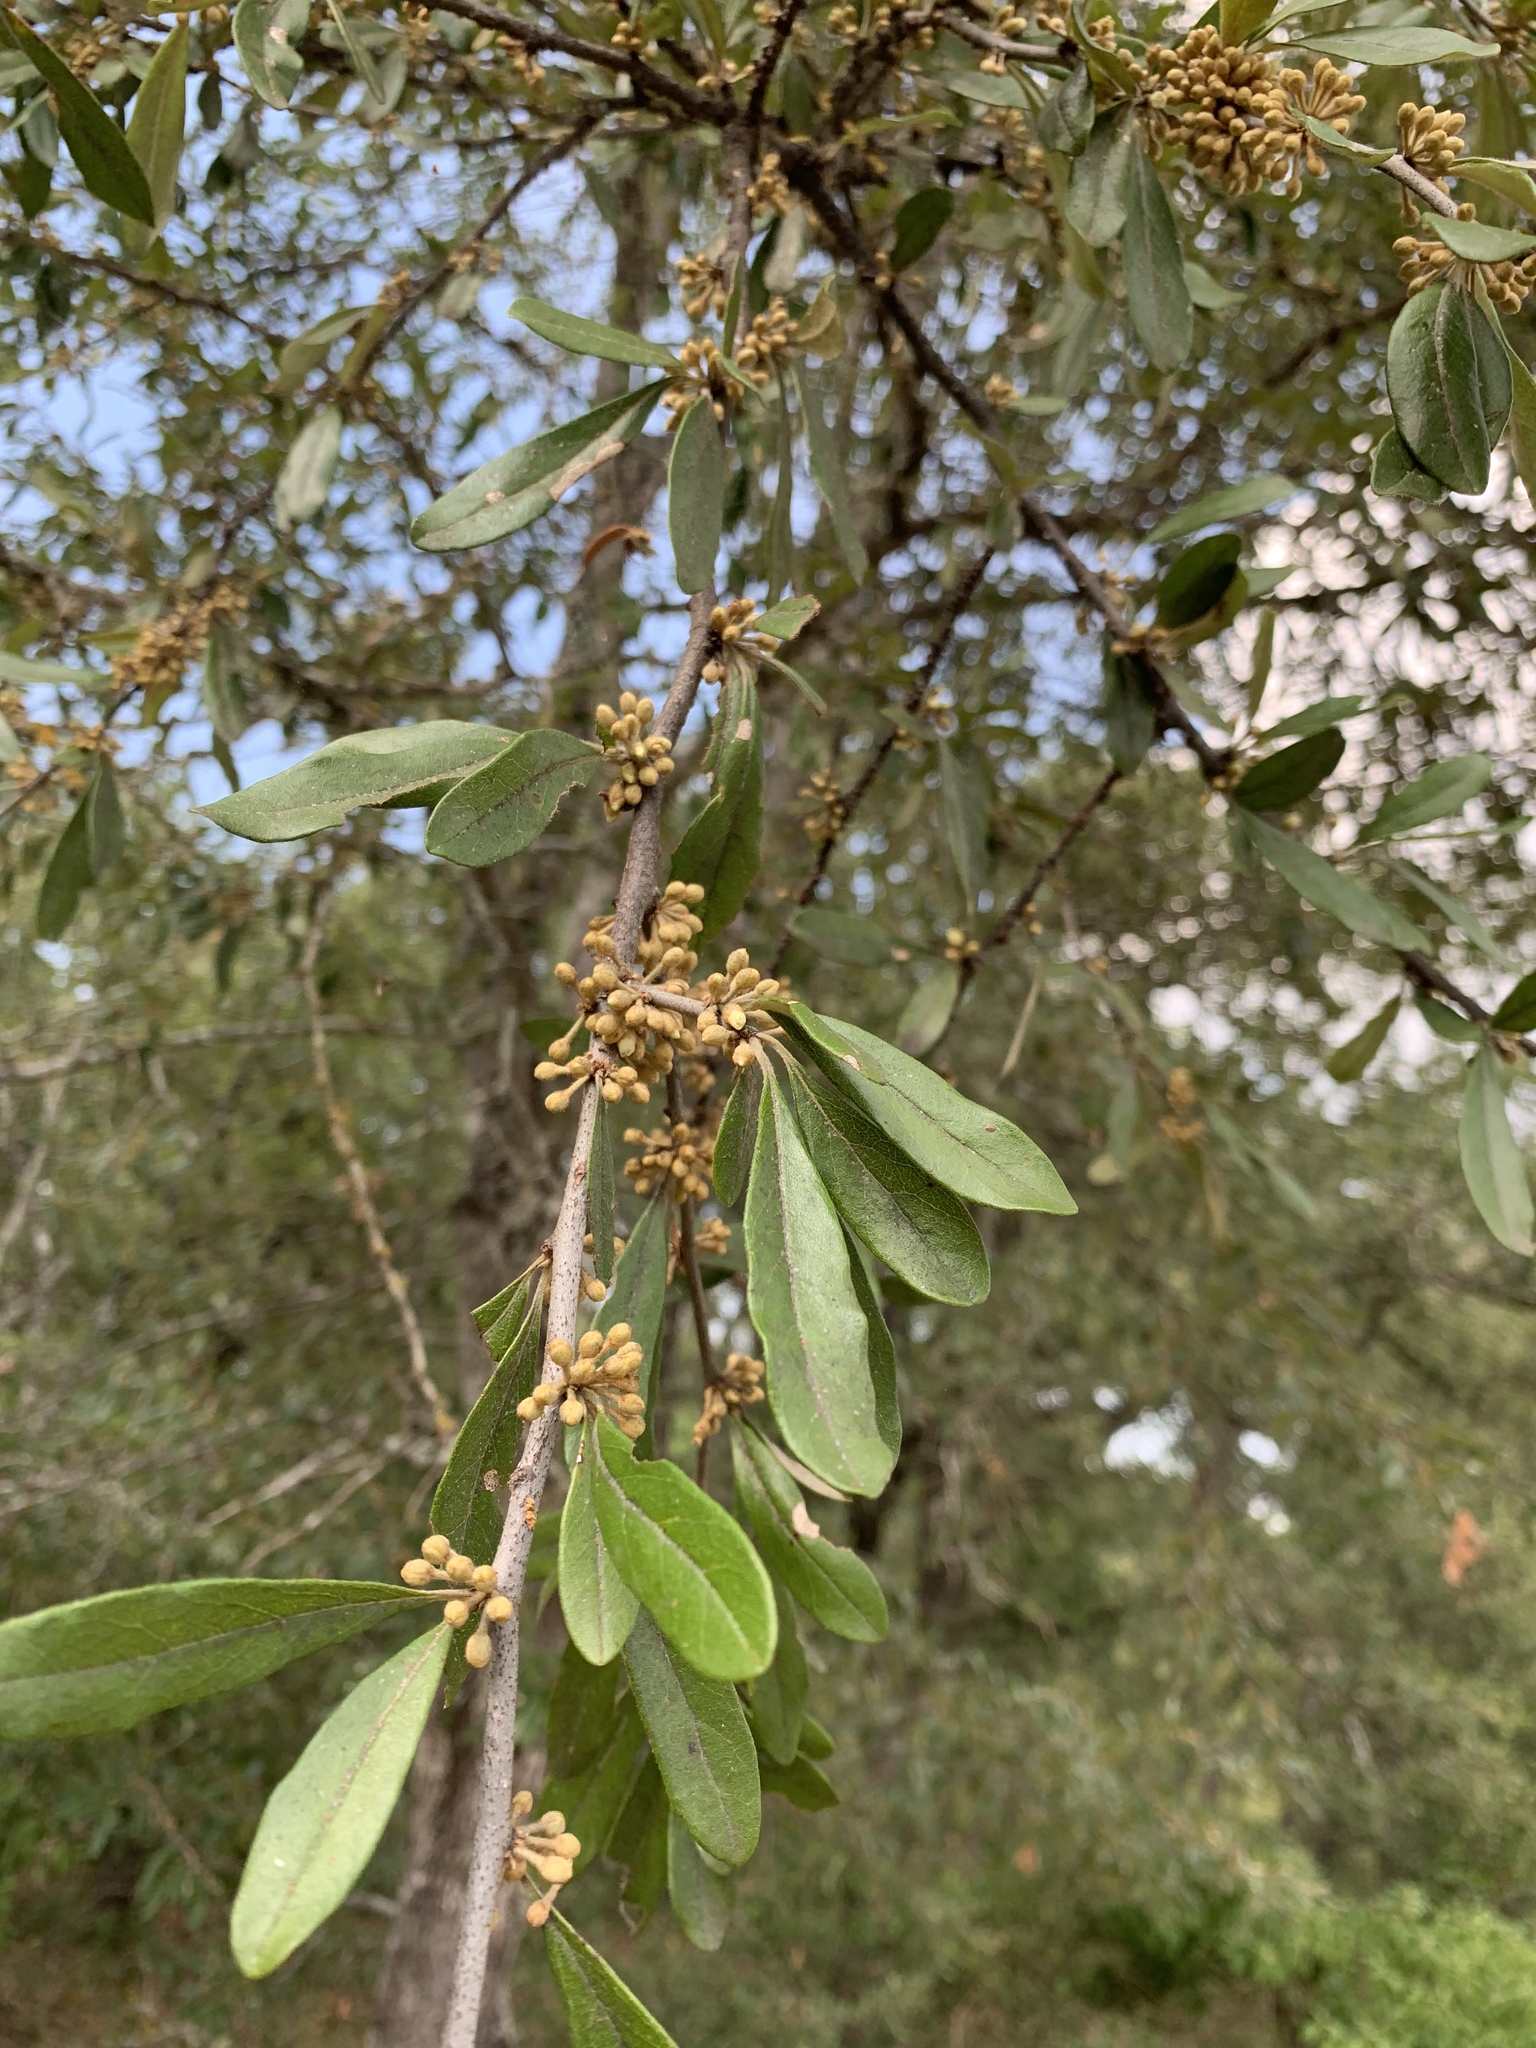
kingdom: Plantae
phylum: Tracheophyta
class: Magnoliopsida
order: Ericales
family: Sapotaceae
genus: Sideroxylon
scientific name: Sideroxylon lanuginosum
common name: Chittamwood
